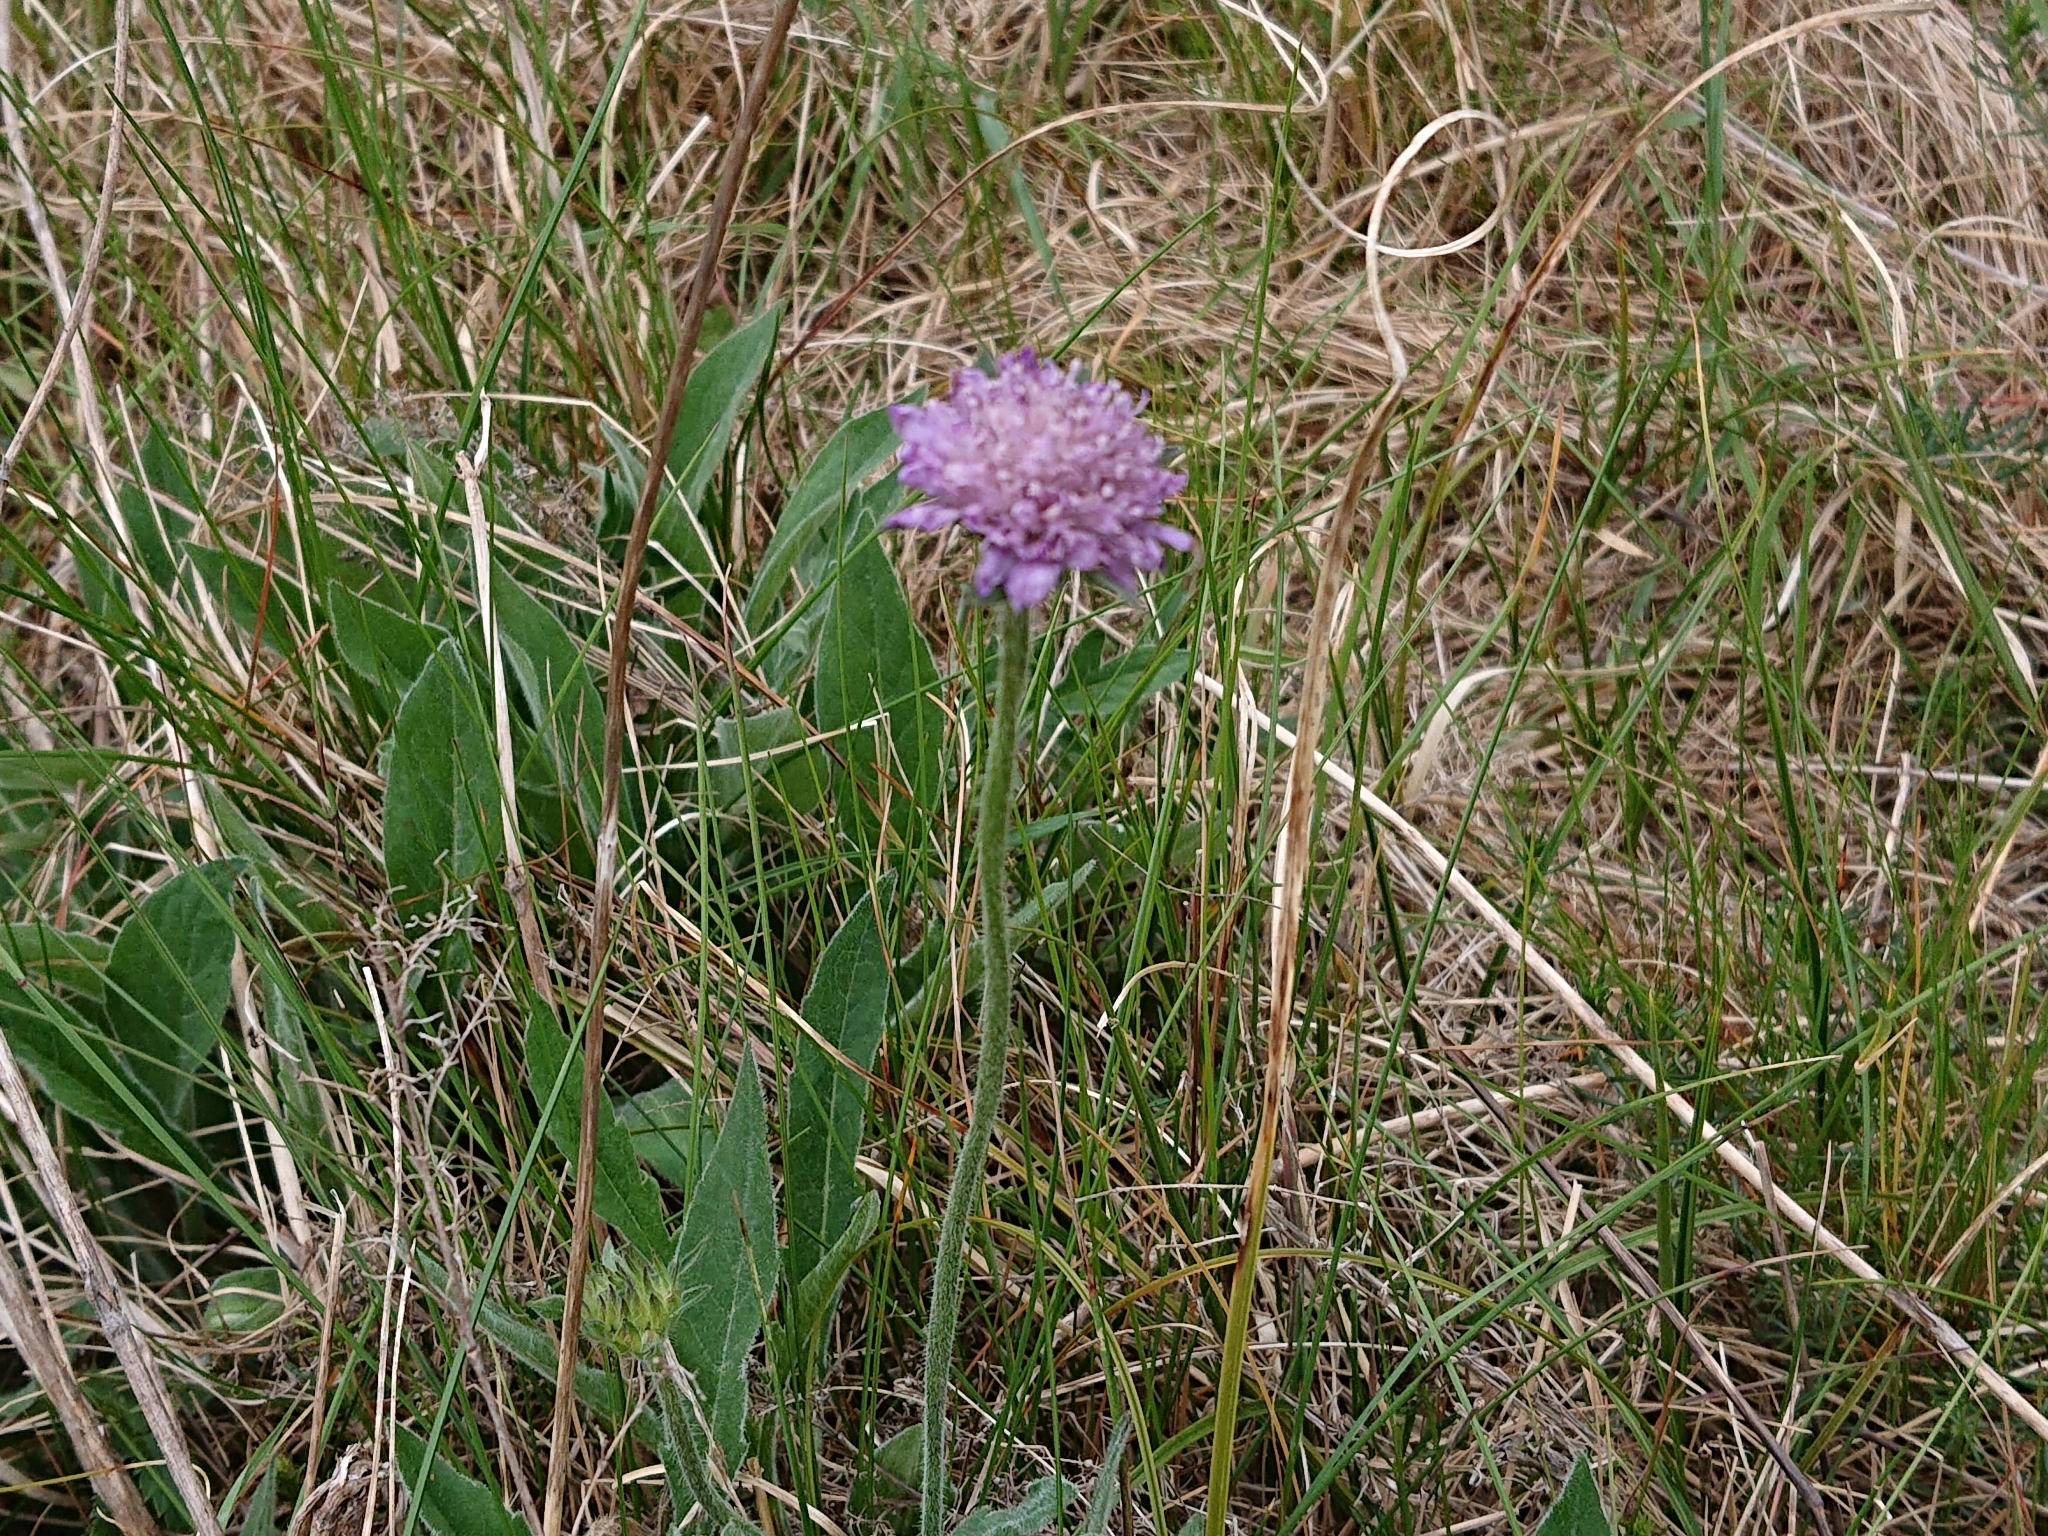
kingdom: Plantae
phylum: Tracheophyta
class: Magnoliopsida
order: Dipsacales
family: Caprifoliaceae
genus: Knautia
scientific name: Knautia arvensis
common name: Field scabiosa
